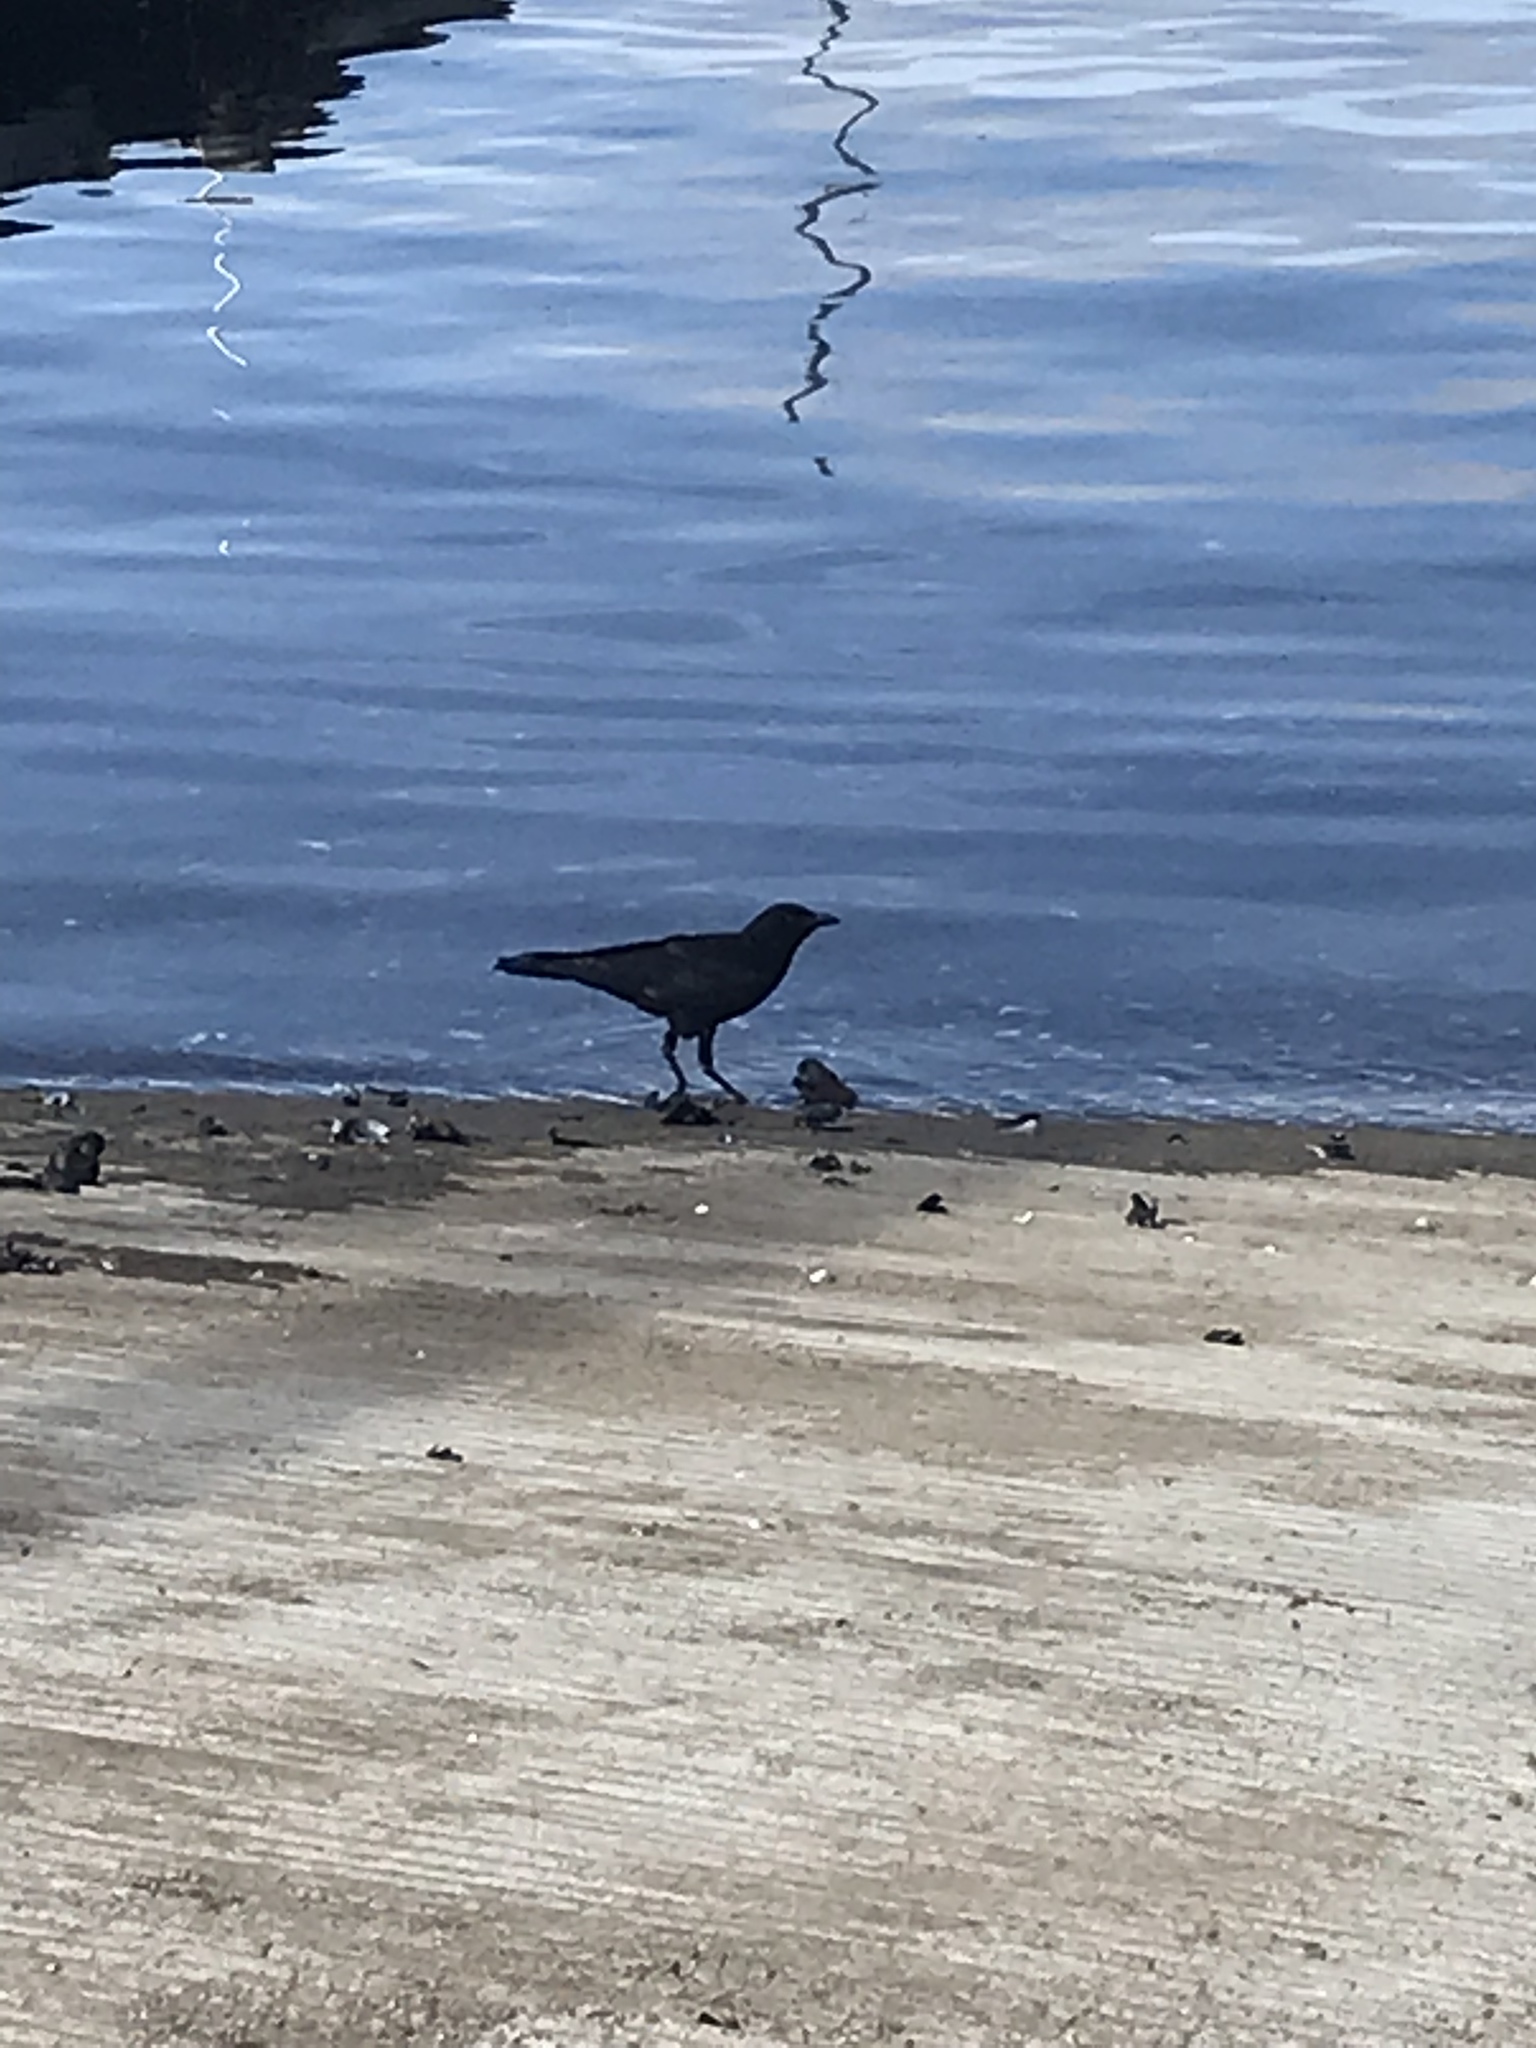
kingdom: Animalia
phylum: Chordata
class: Aves
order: Passeriformes
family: Corvidae
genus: Corvus
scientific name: Corvus brachyrhynchos
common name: American crow
